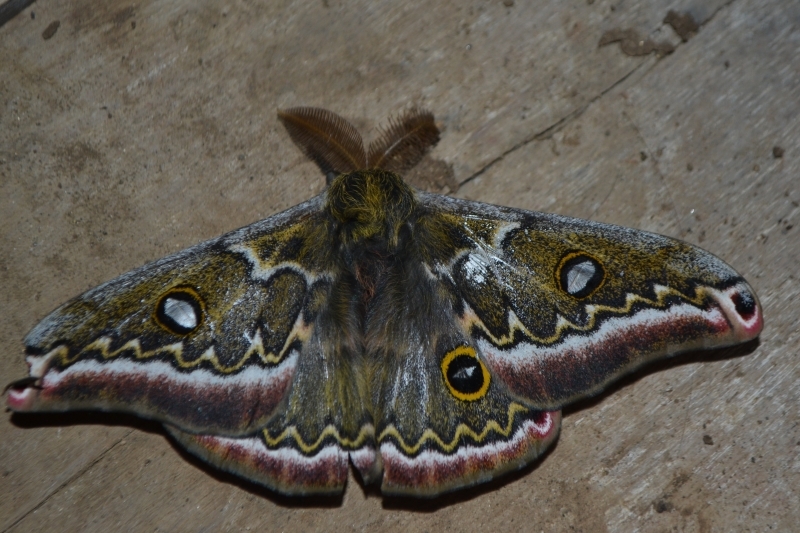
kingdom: Animalia
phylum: Arthropoda
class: Insecta
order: Lepidoptera
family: Saturniidae
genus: Copaxa
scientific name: Copaxa medea
